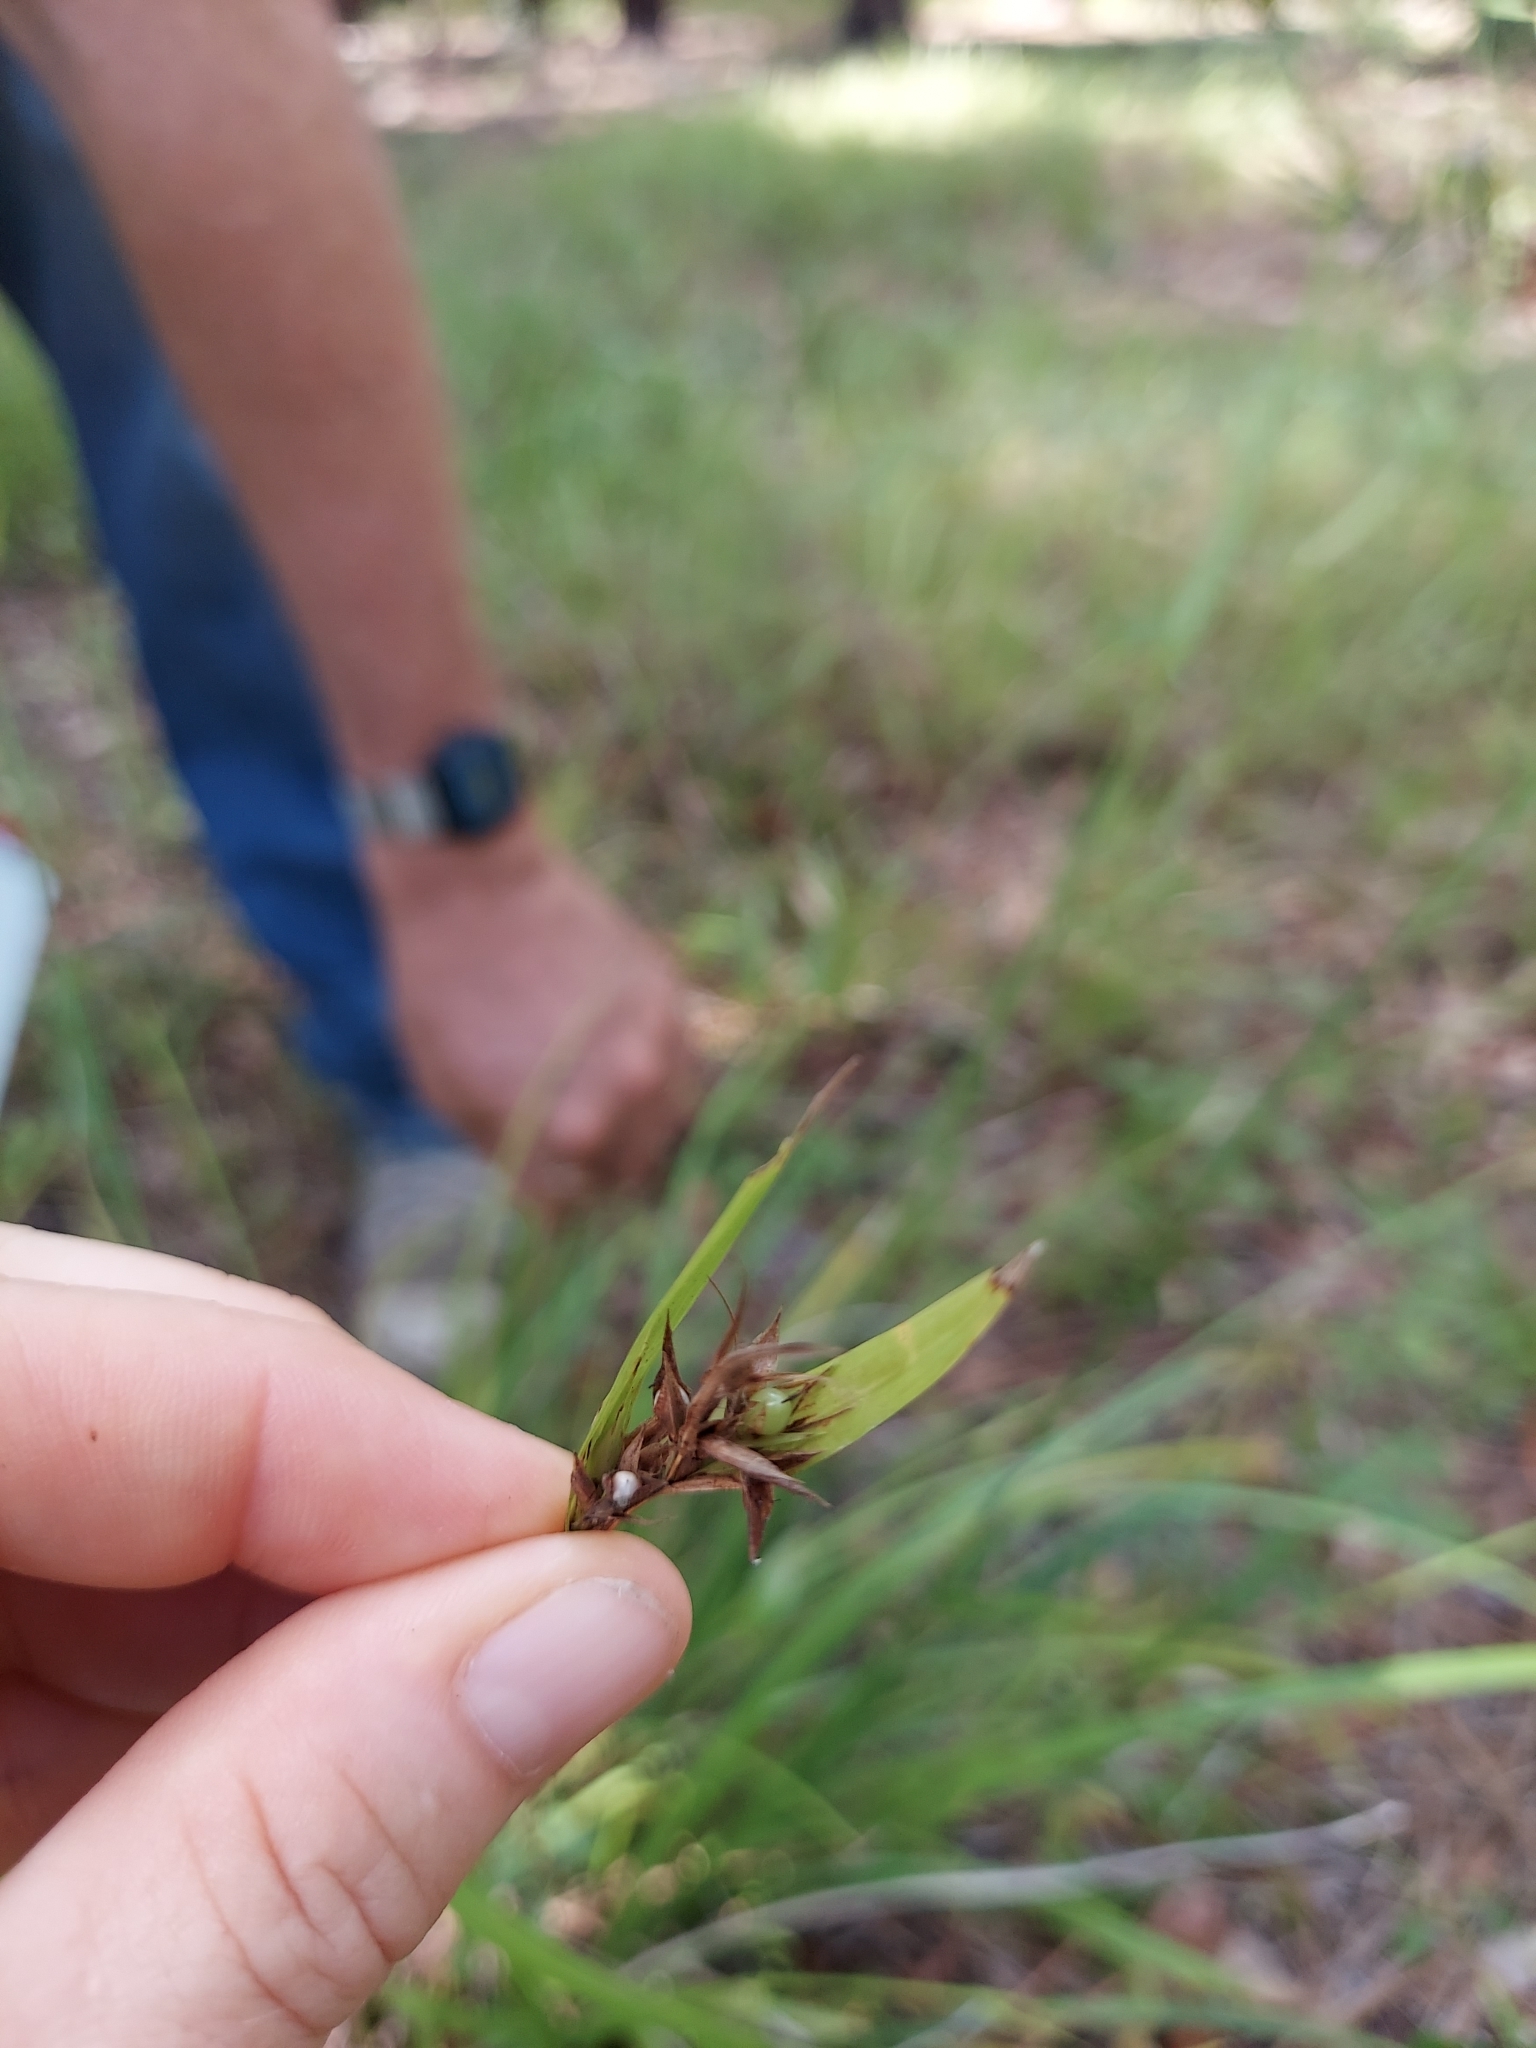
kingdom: Plantae
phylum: Tracheophyta
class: Liliopsida
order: Poales
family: Cyperaceae
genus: Scleria
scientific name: Scleria triglomerata
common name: Whip nutrush
